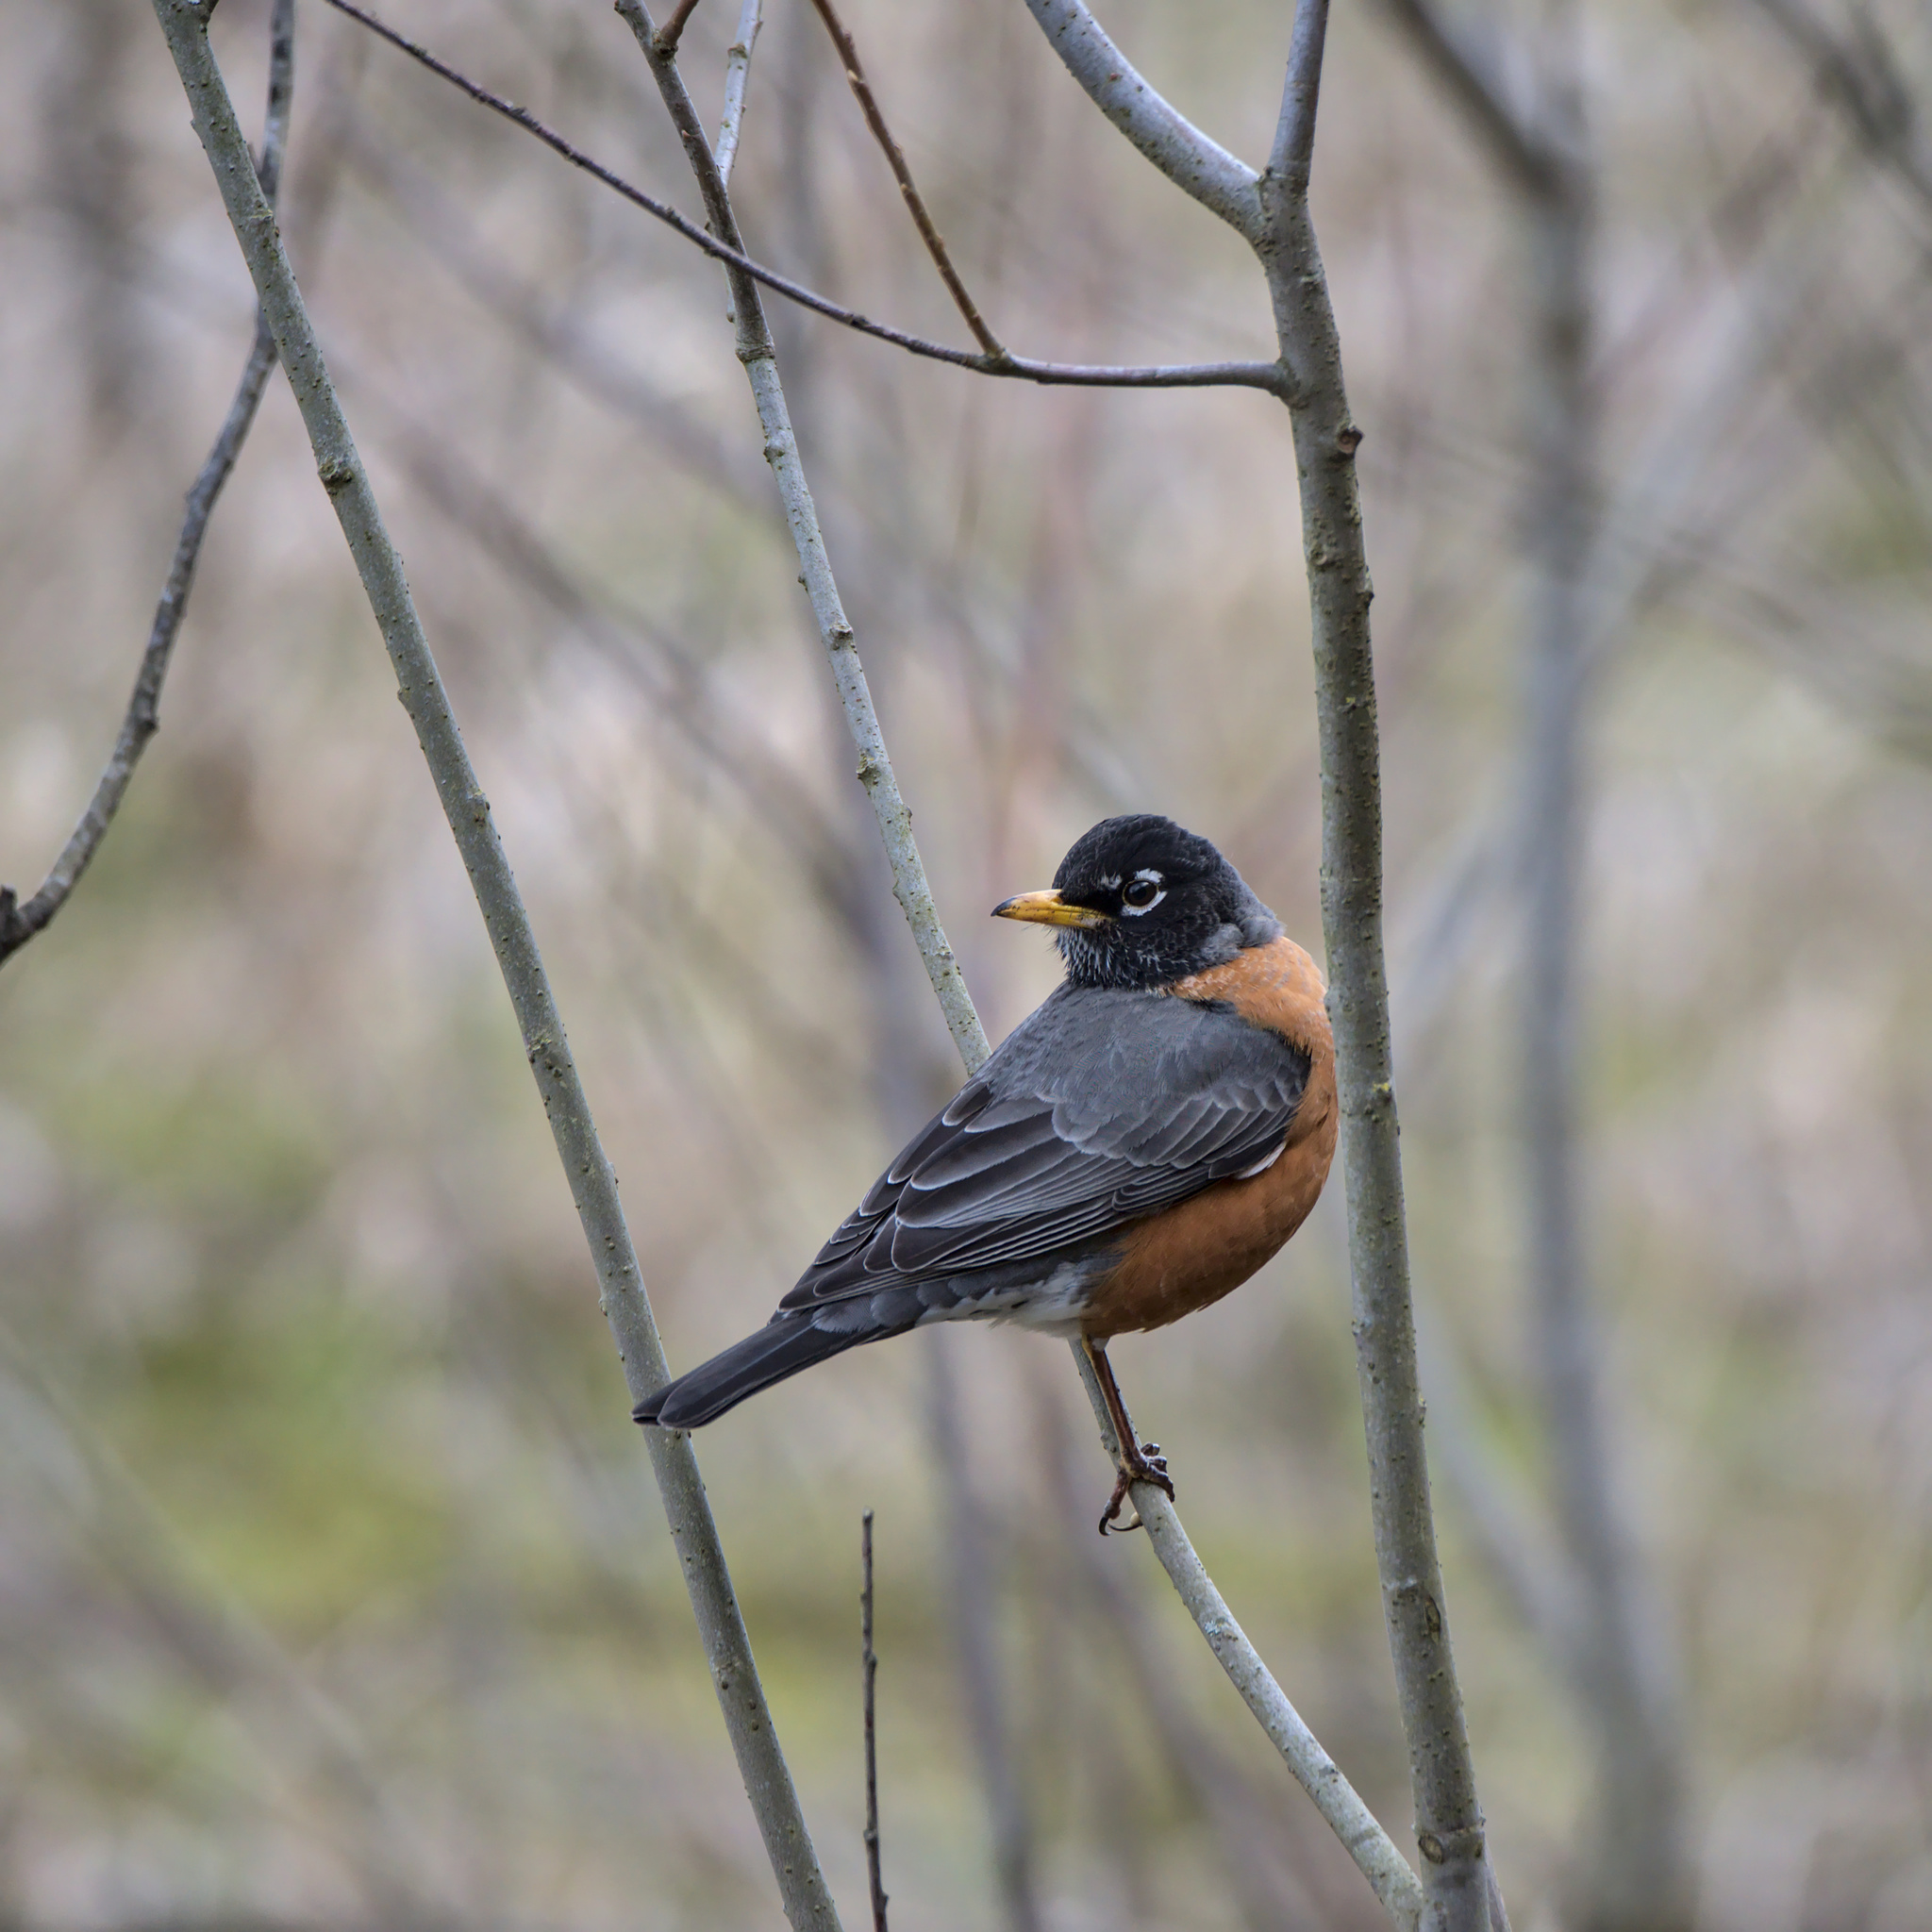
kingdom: Animalia
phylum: Chordata
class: Aves
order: Passeriformes
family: Turdidae
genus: Turdus
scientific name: Turdus migratorius
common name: American robin
